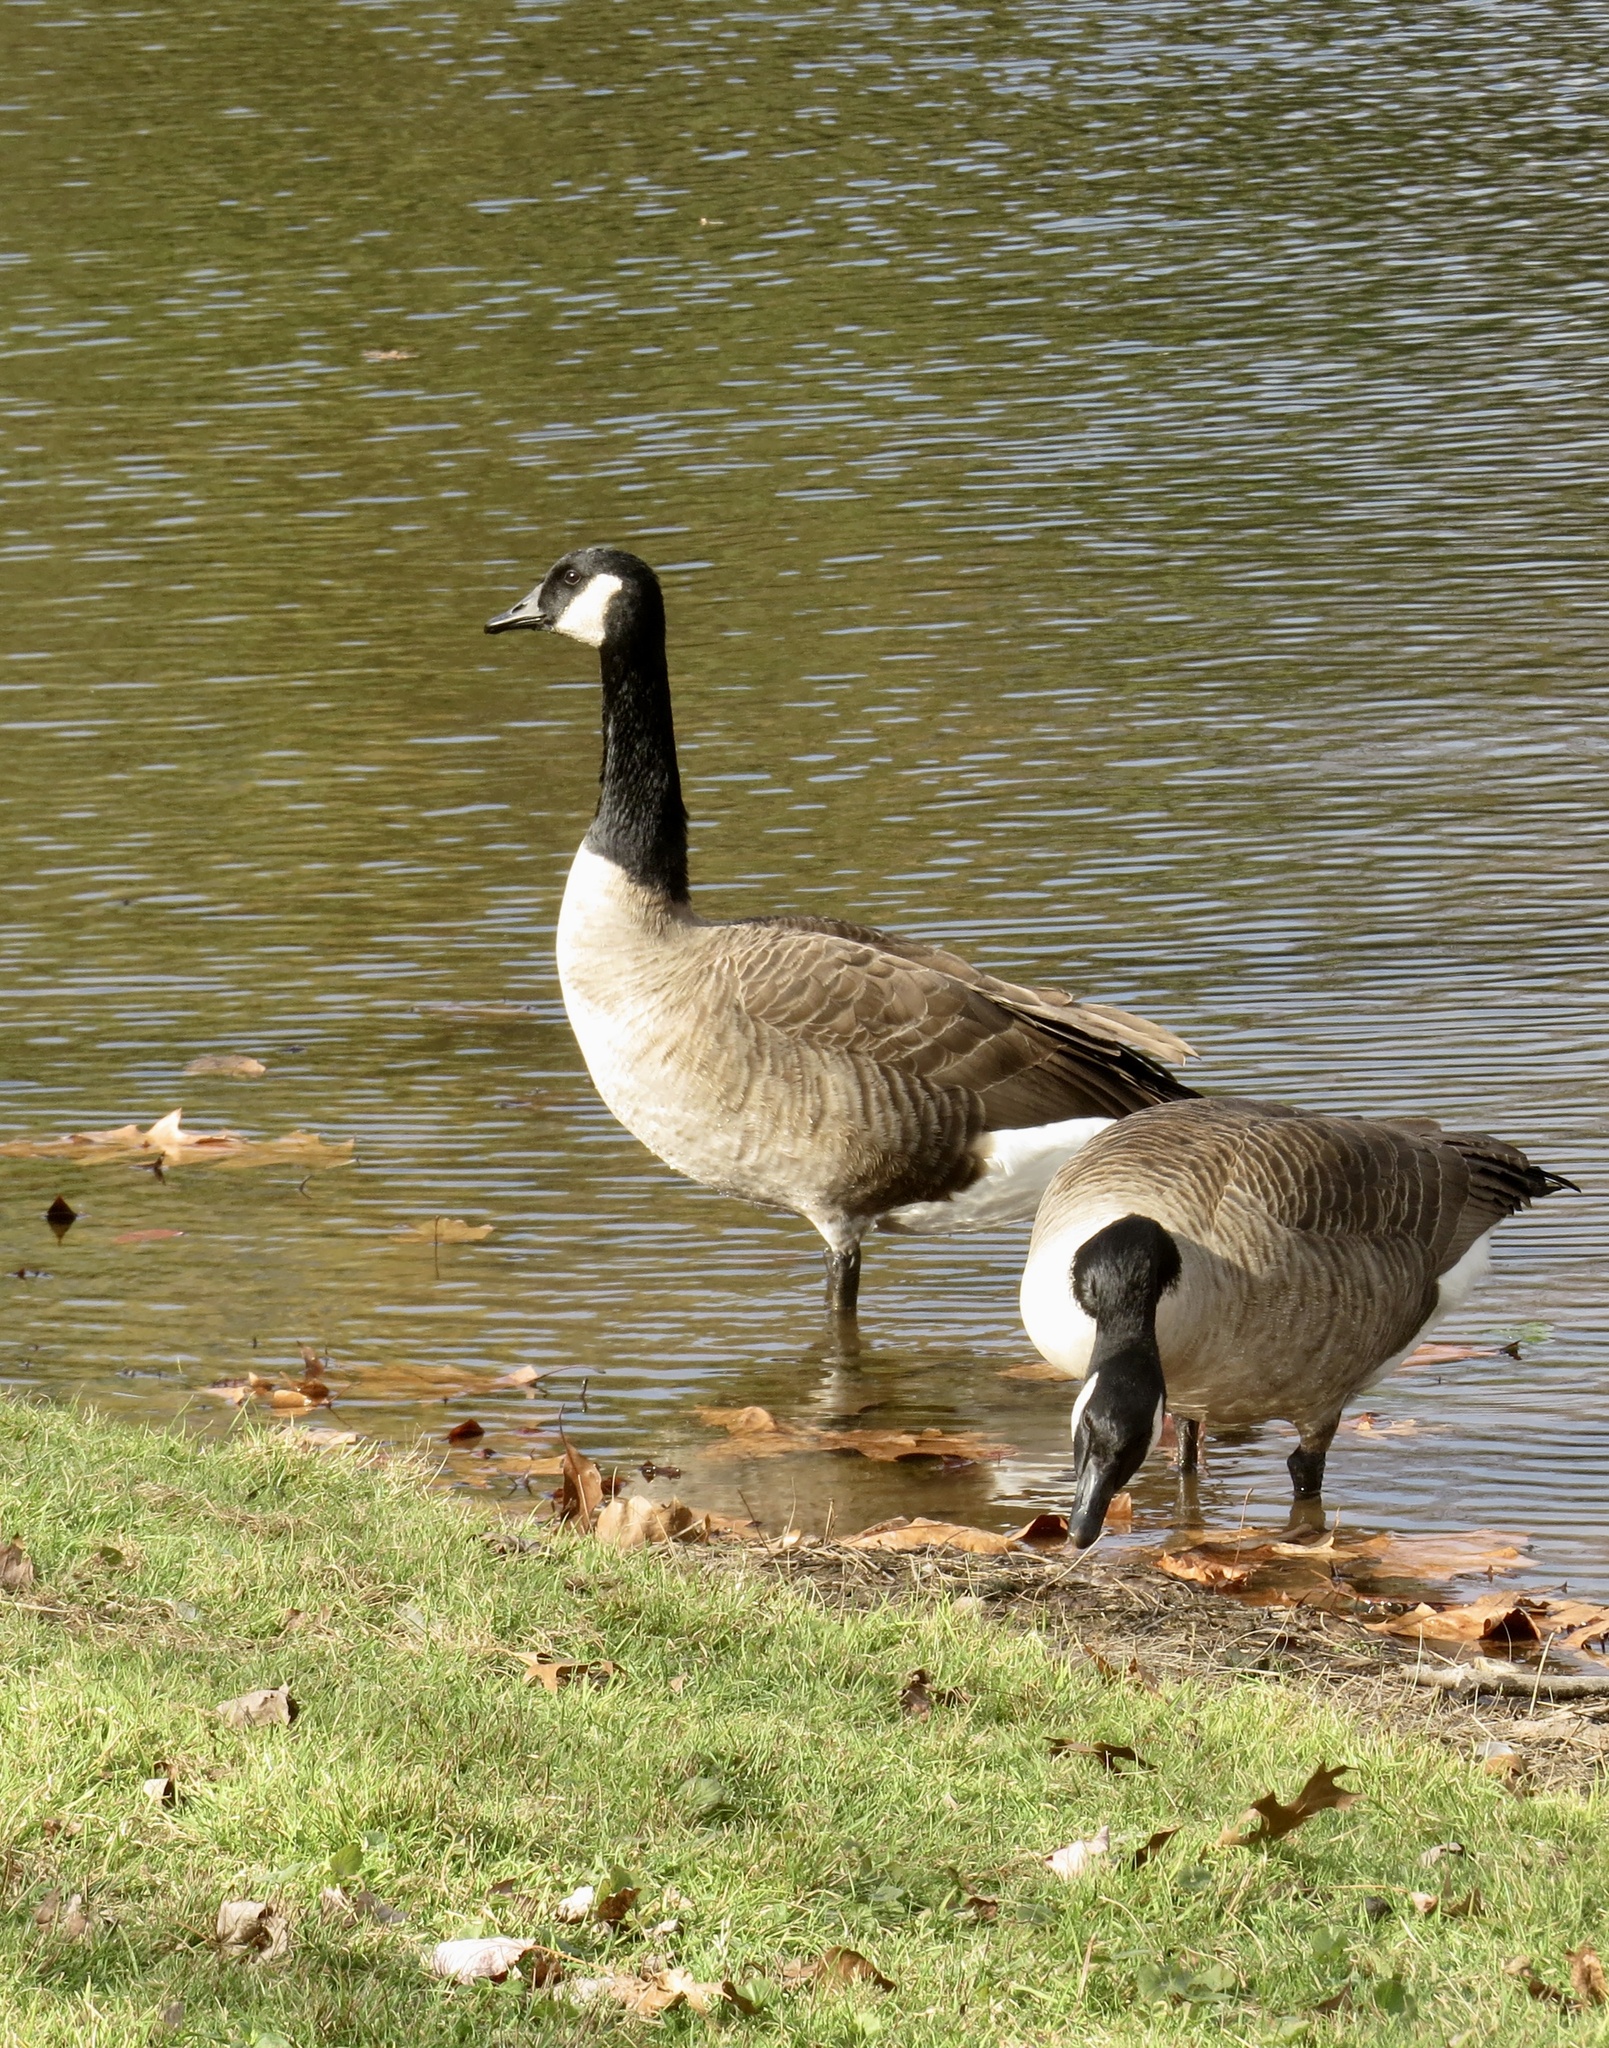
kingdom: Animalia
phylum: Chordata
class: Aves
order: Anseriformes
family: Anatidae
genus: Branta
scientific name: Branta canadensis
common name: Canada goose
